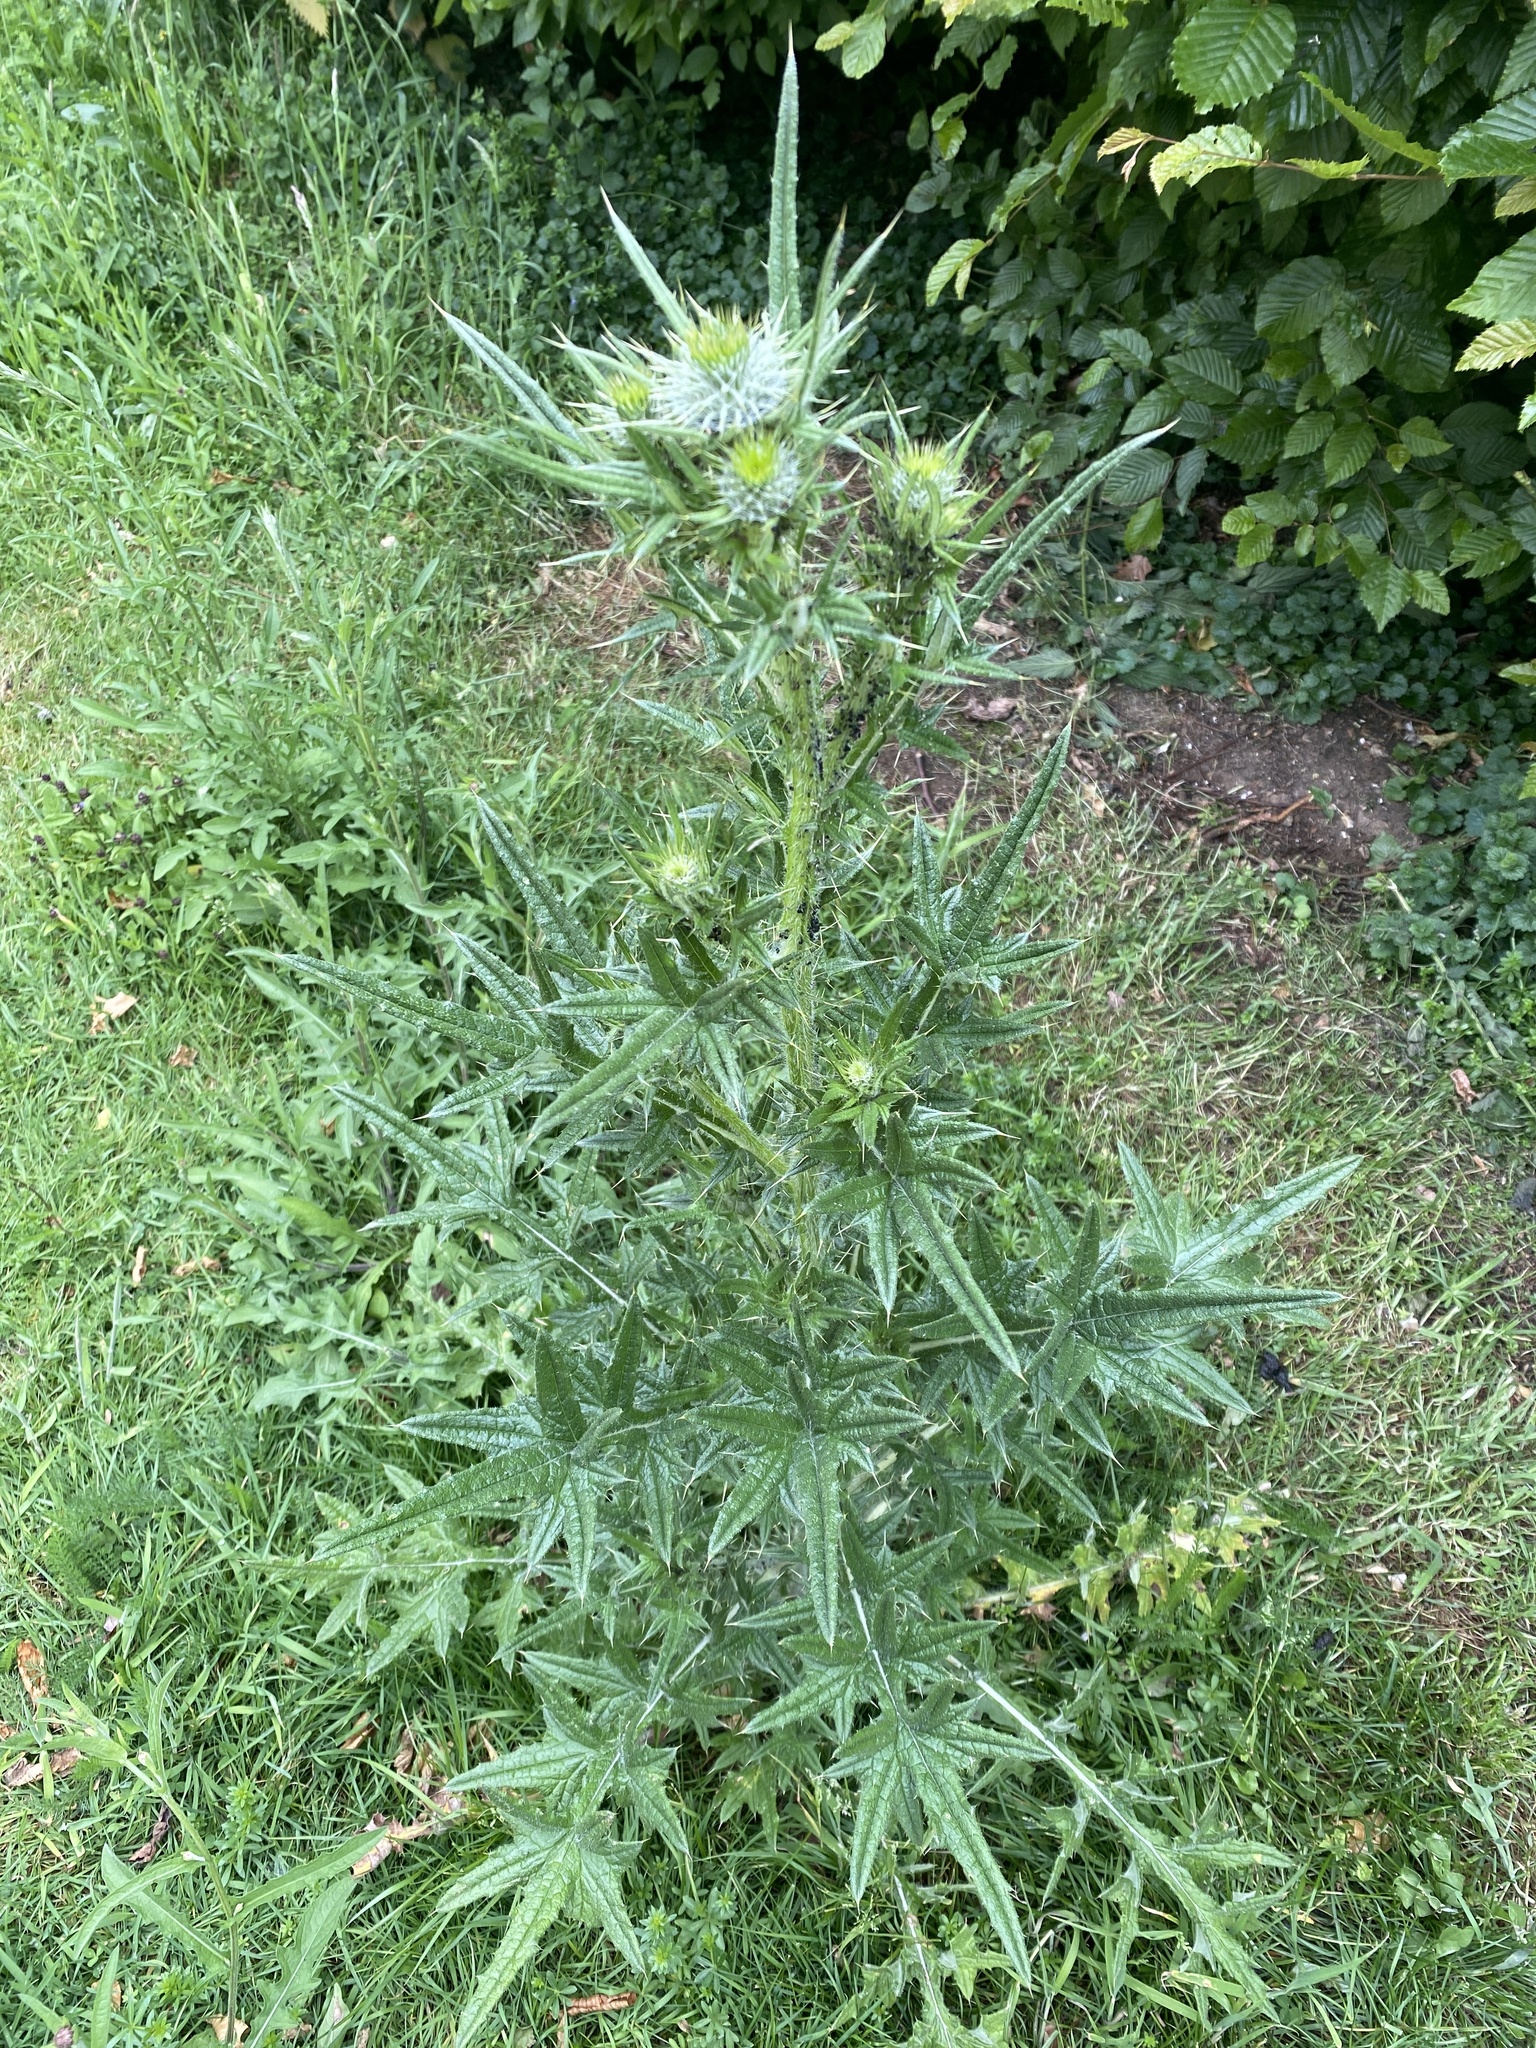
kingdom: Plantae
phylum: Tracheophyta
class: Magnoliopsida
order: Asterales
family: Asteraceae
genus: Cirsium
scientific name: Cirsium vulgare
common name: Bull thistle
